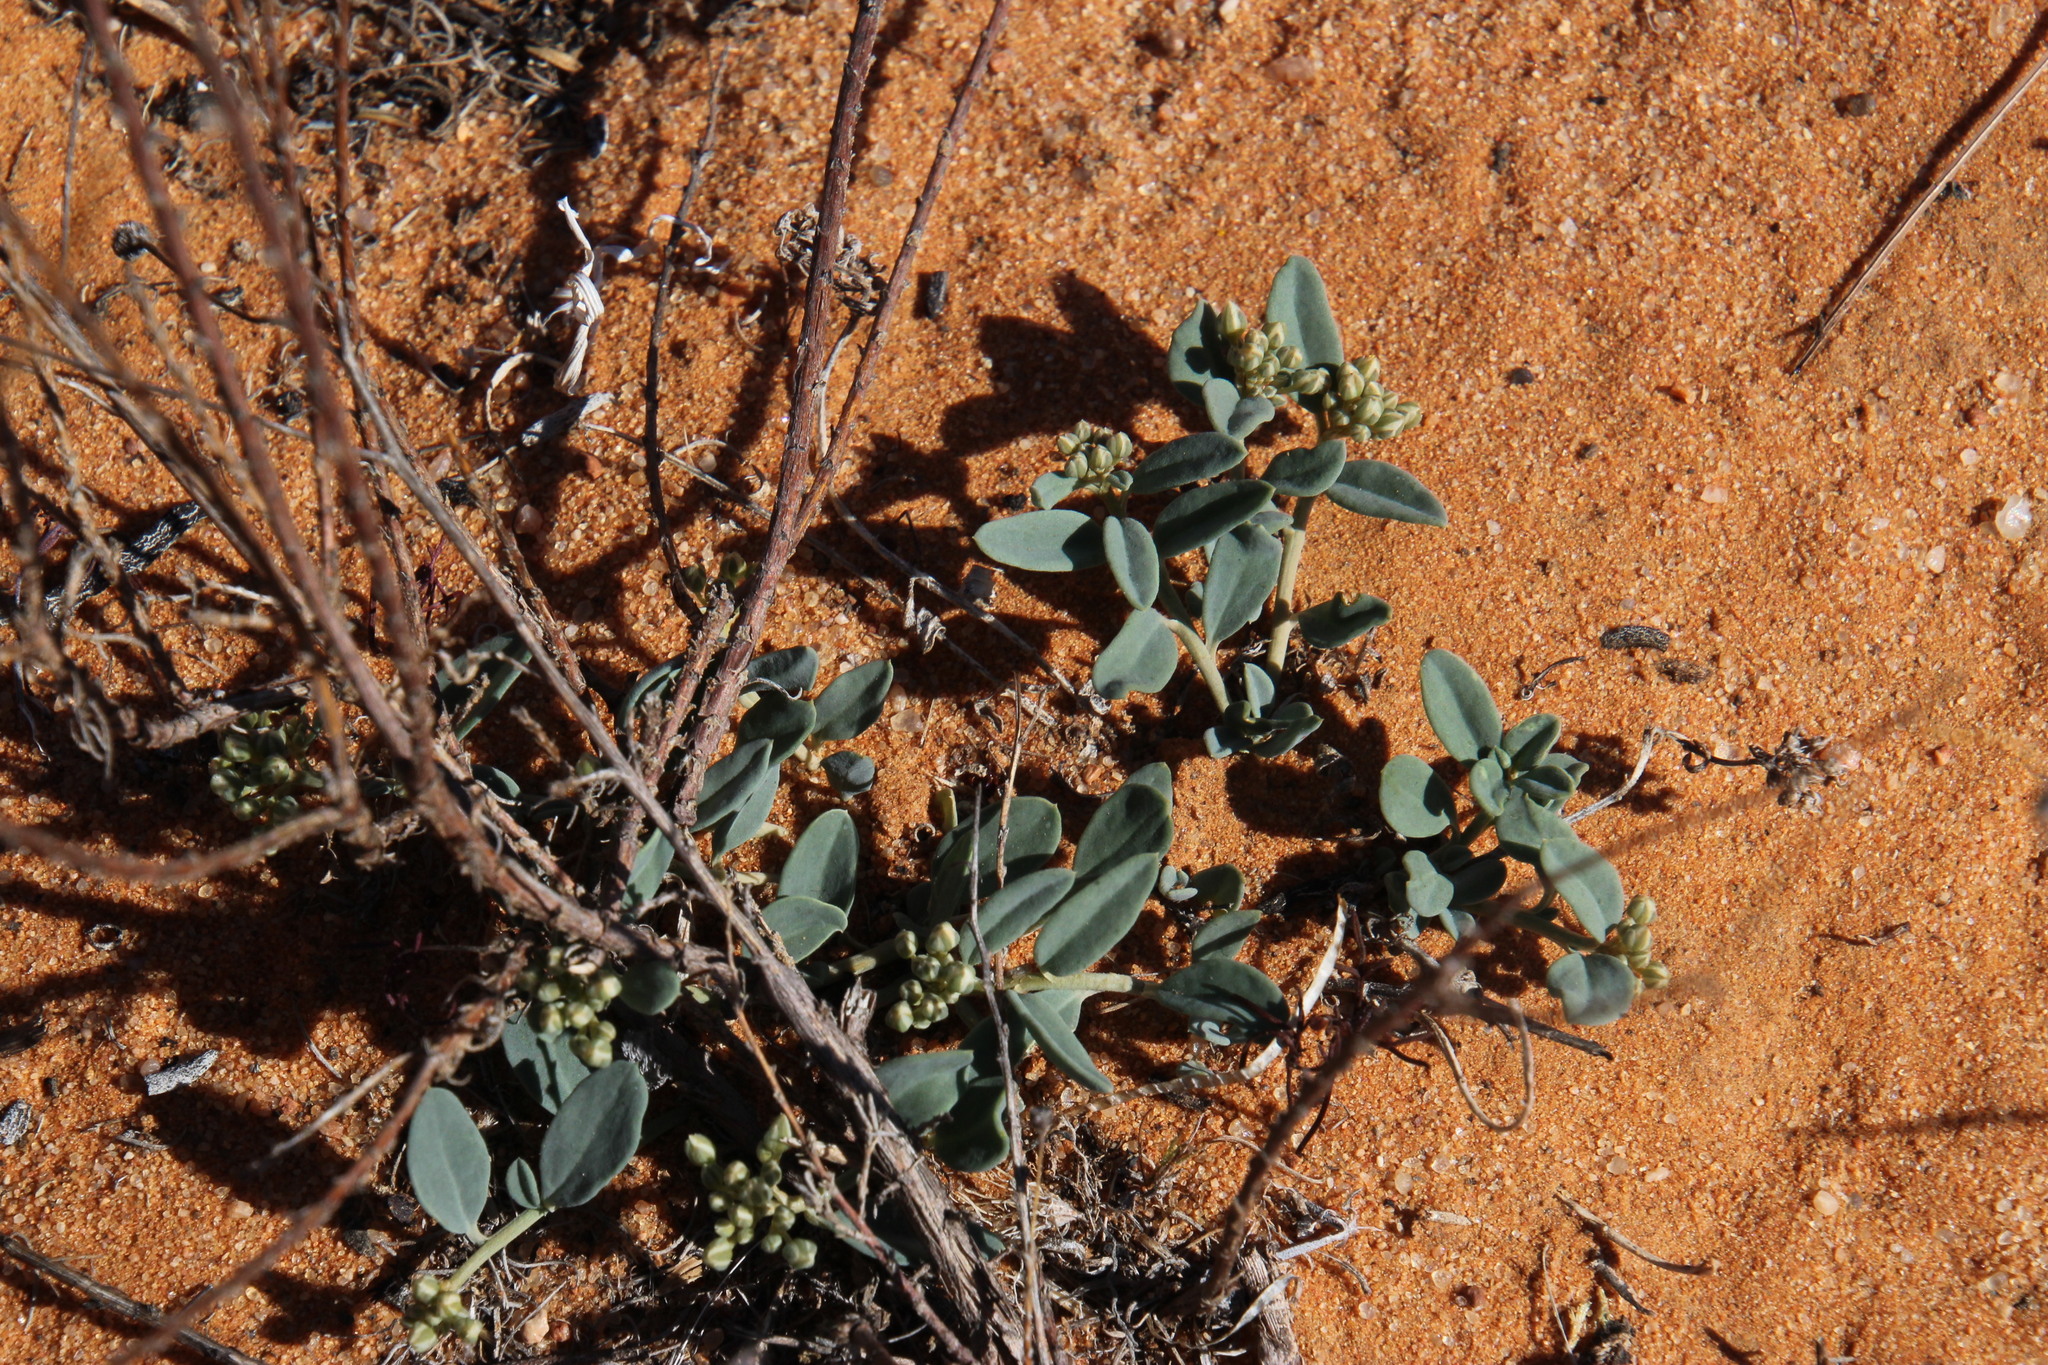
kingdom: Plantae
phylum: Tracheophyta
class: Magnoliopsida
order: Caryophyllales
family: Limeaceae
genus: Limeum
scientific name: Limeum africanum
